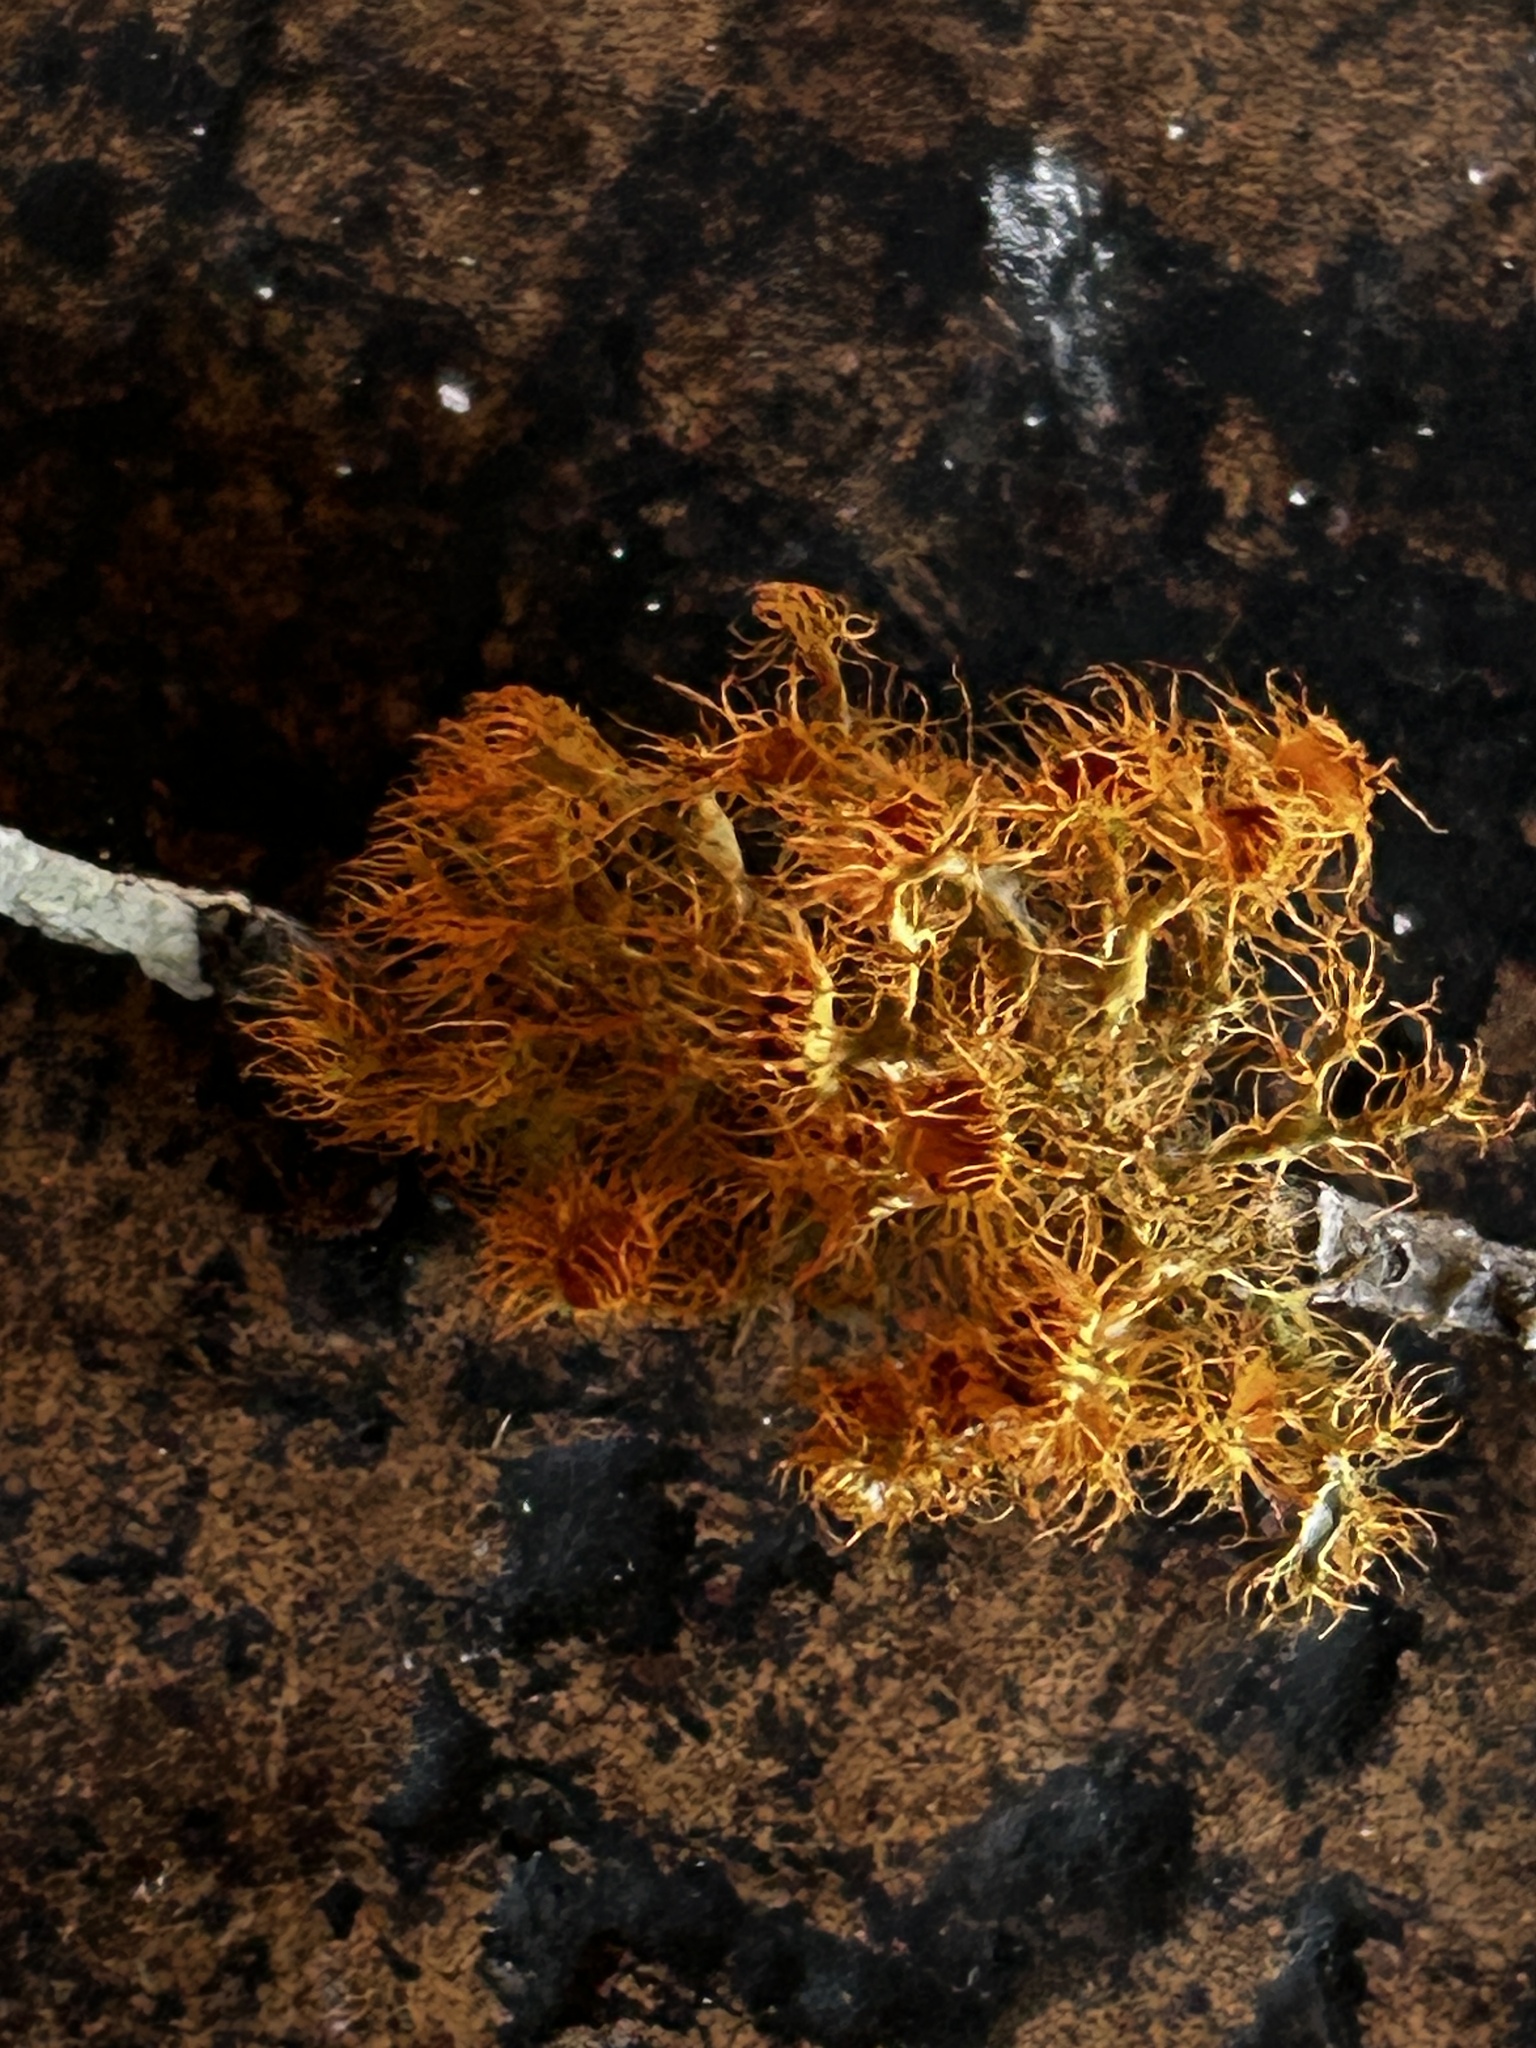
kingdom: Fungi
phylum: Ascomycota
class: Lecanoromycetes
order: Teloschistales
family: Teloschistaceae
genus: Teloschistes
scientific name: Teloschistes capensis
